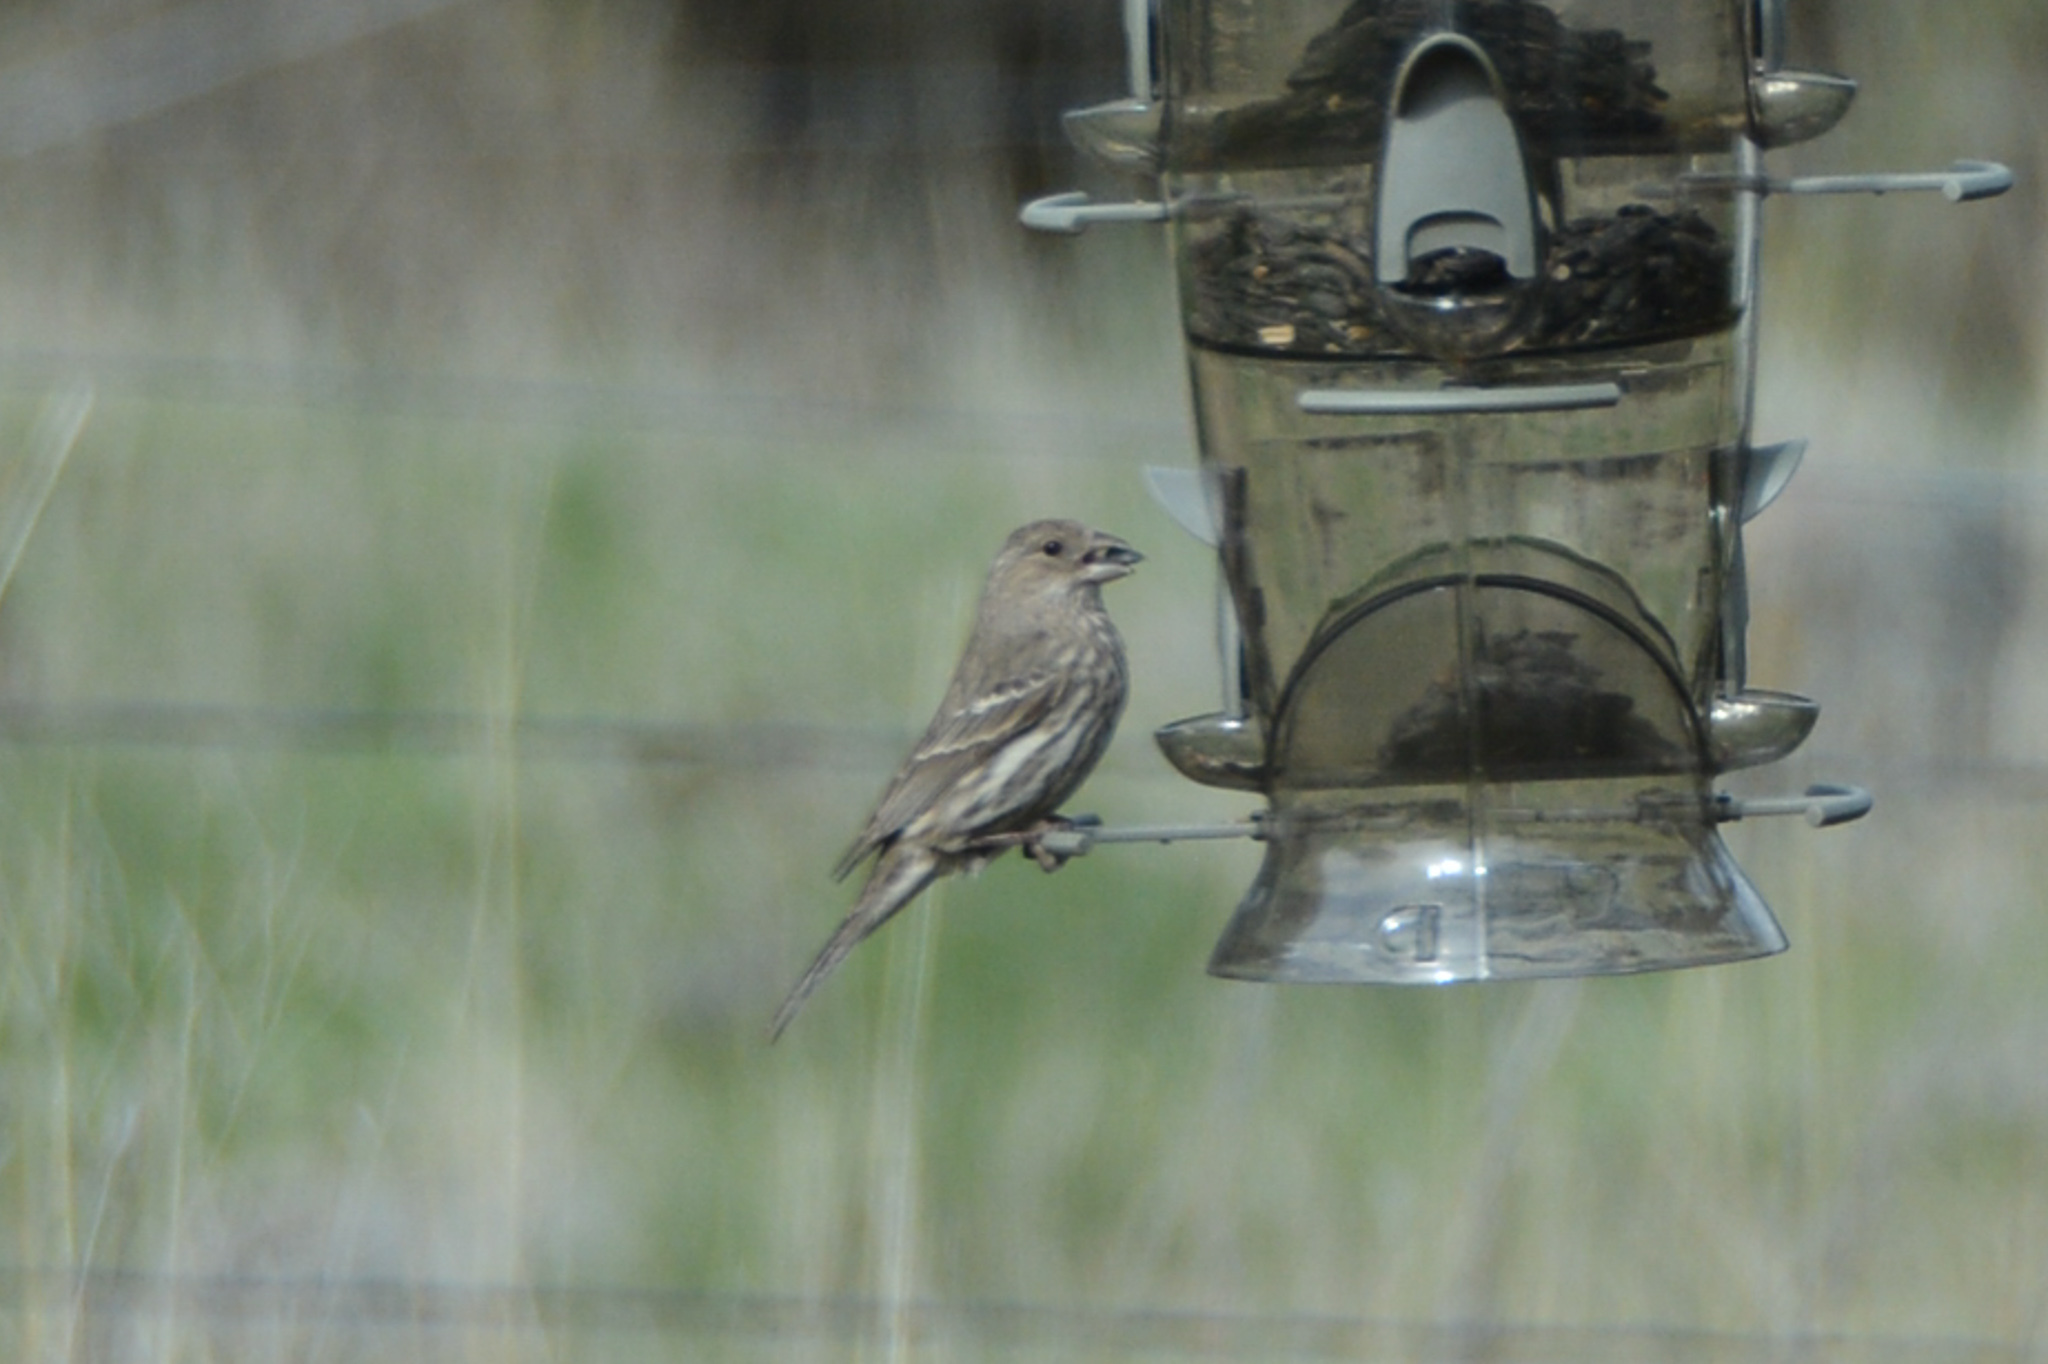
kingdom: Animalia
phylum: Chordata
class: Aves
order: Passeriformes
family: Fringillidae
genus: Haemorhous
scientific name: Haemorhous mexicanus
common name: House finch
